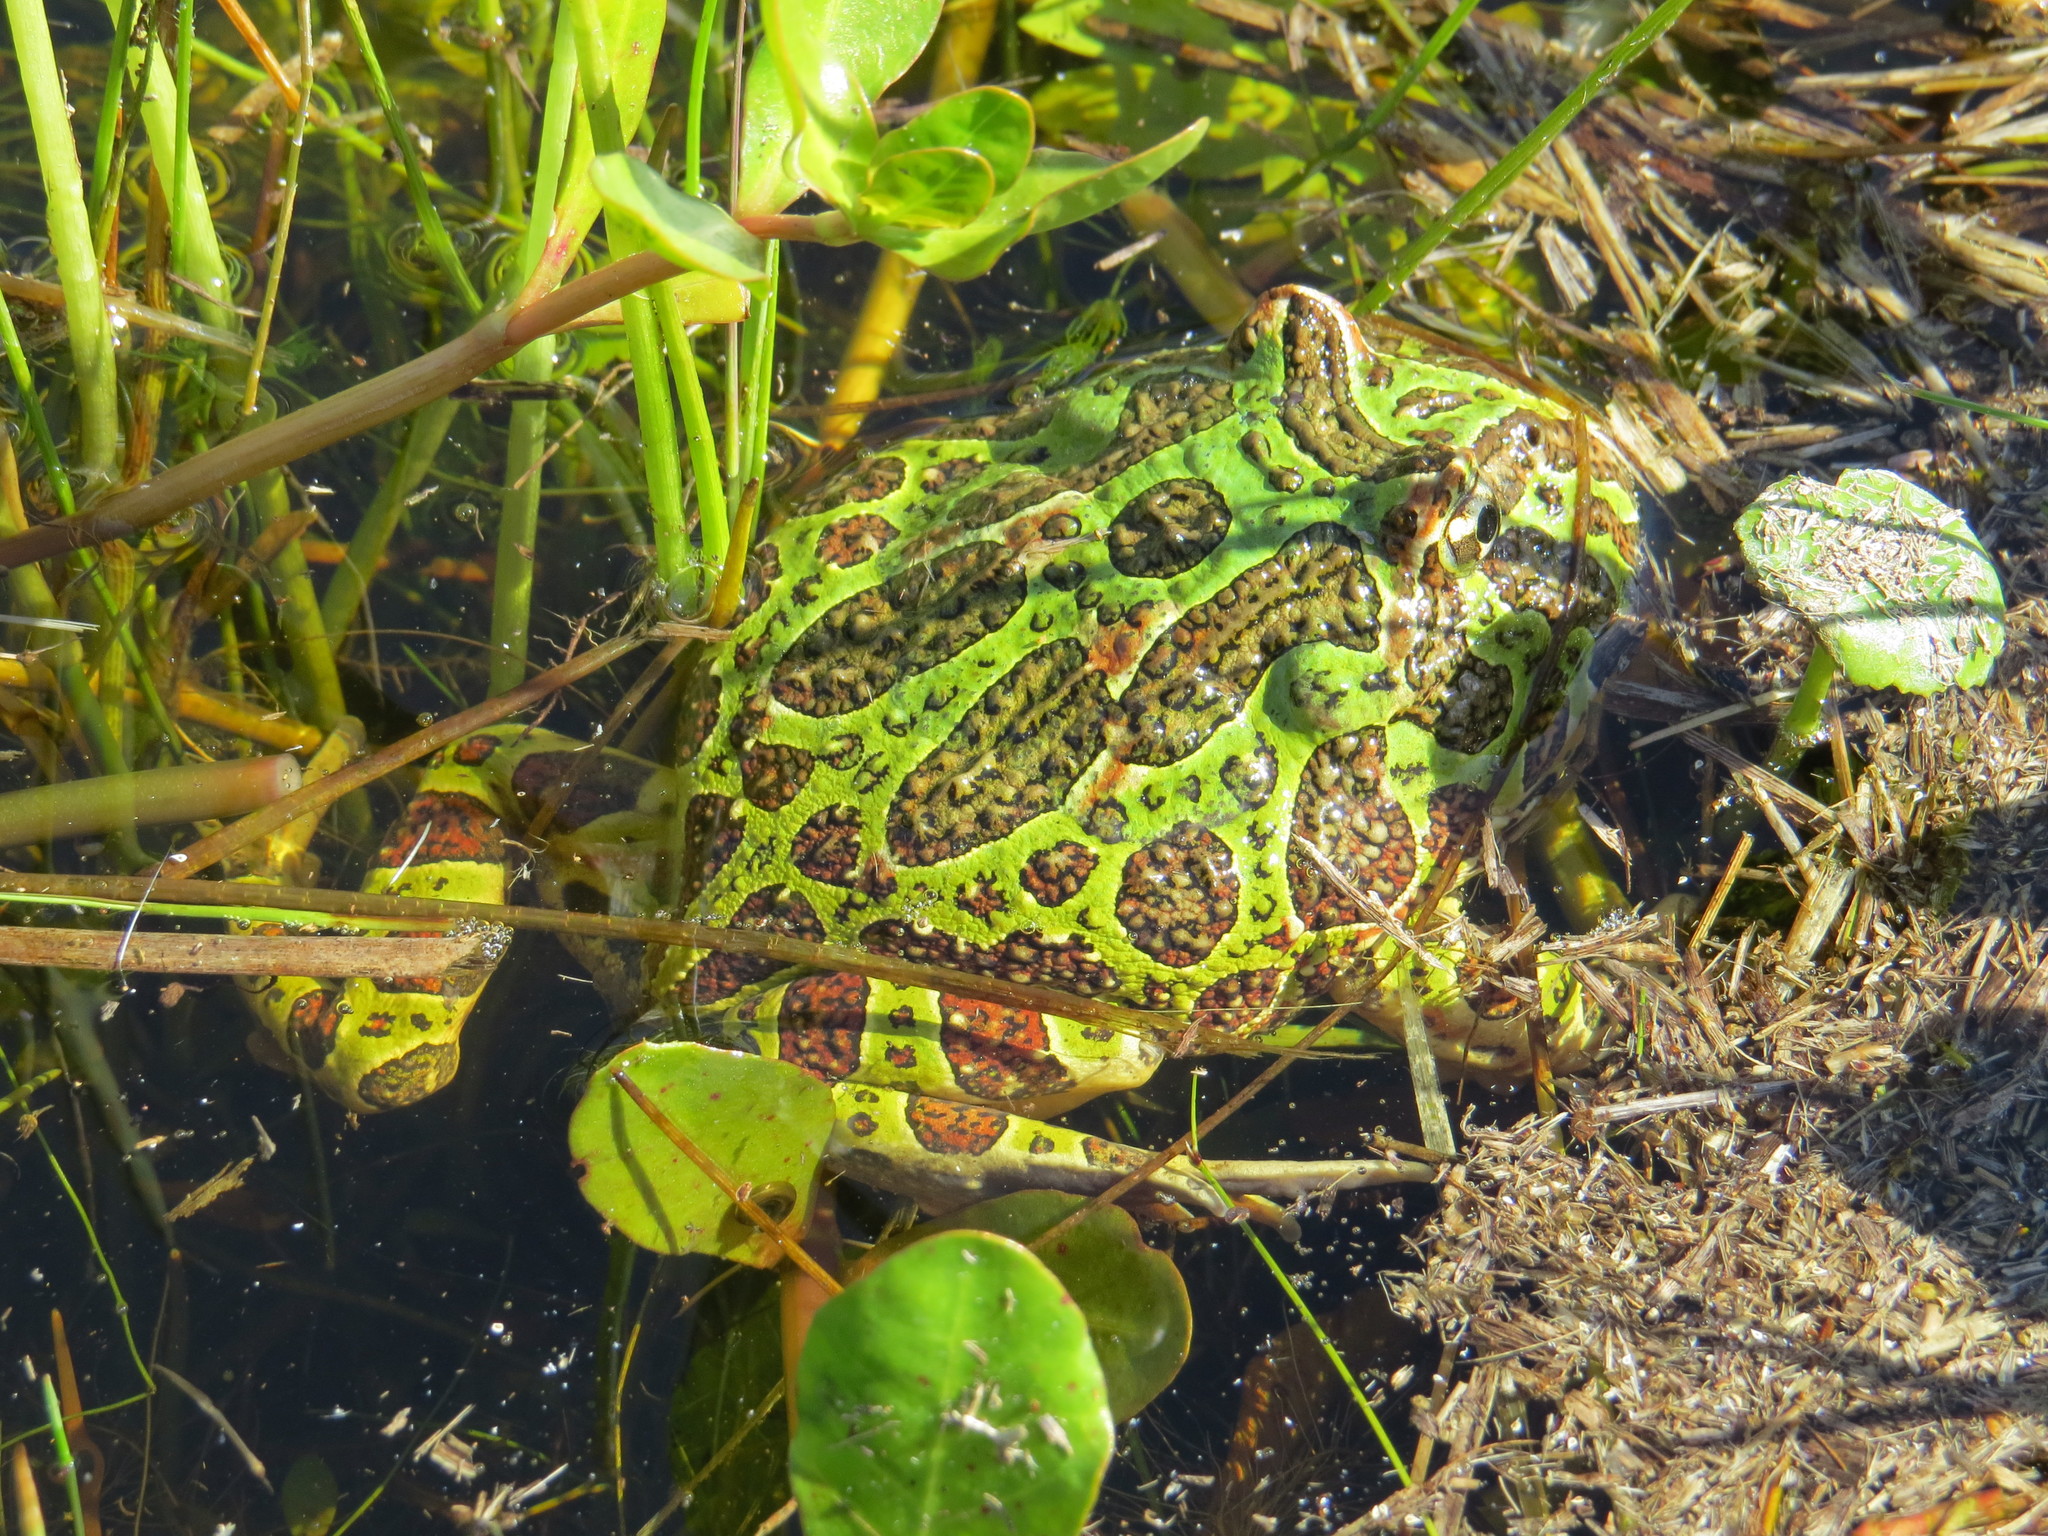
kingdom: Animalia
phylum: Chordata
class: Amphibia
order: Anura
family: Ceratophryidae
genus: Ceratophrys
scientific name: Ceratophrys ornata
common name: Argentinean horned frog
